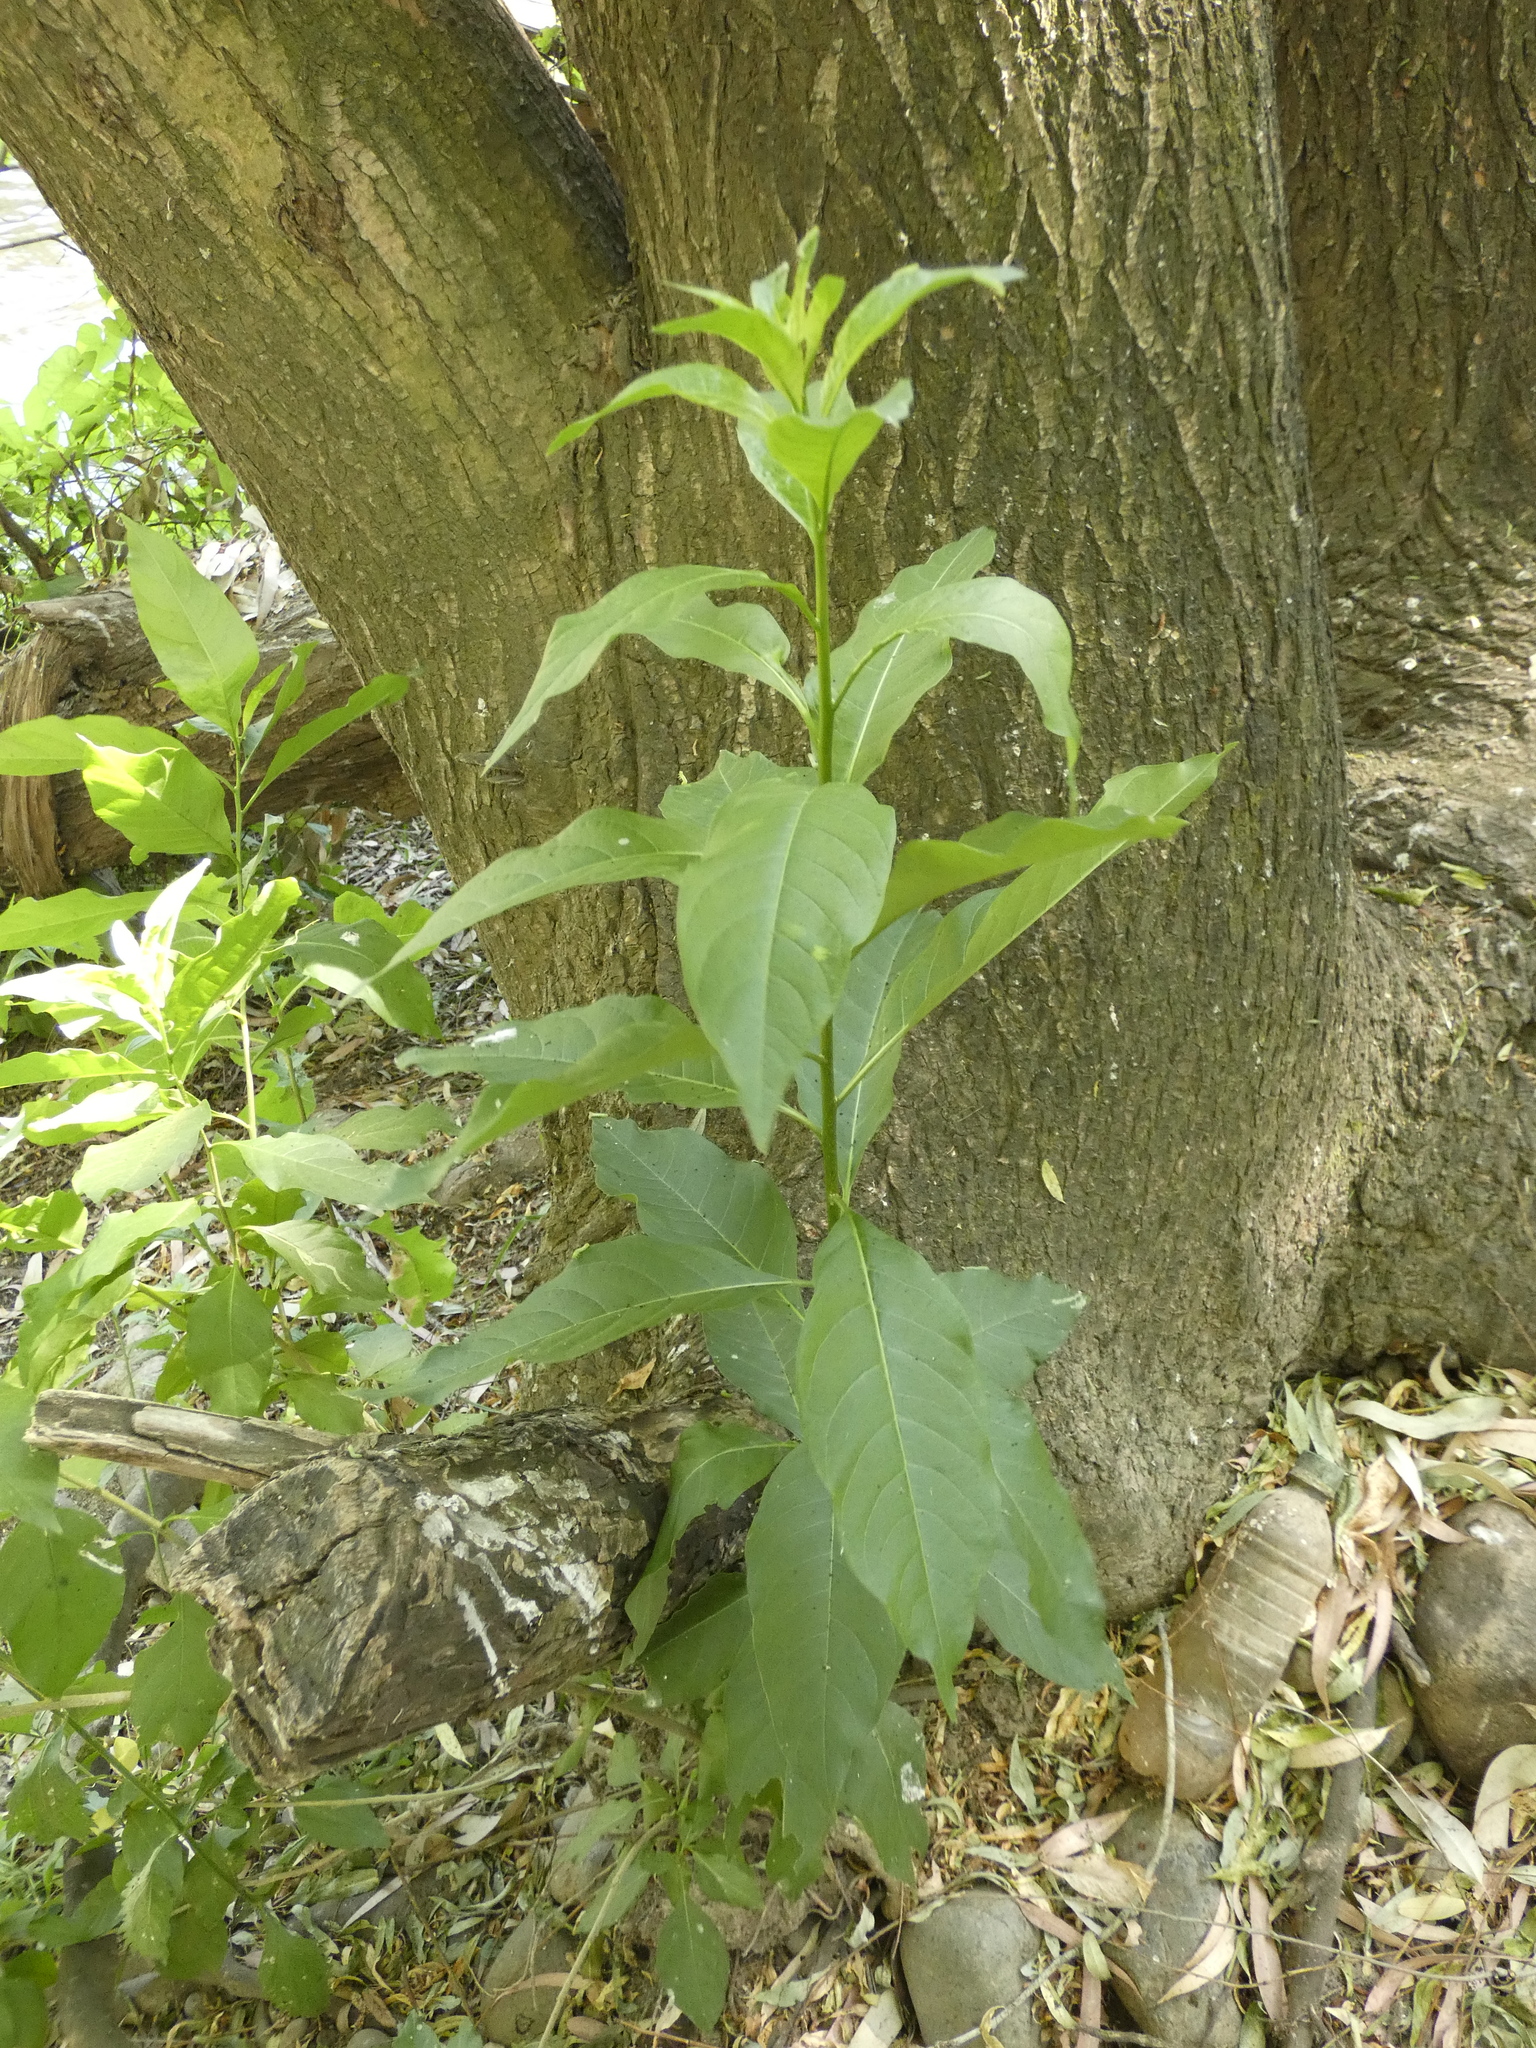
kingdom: Plantae
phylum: Tracheophyta
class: Magnoliopsida
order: Solanales
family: Solanaceae
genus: Cestrum
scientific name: Cestrum parqui
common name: Chilean cestrum
